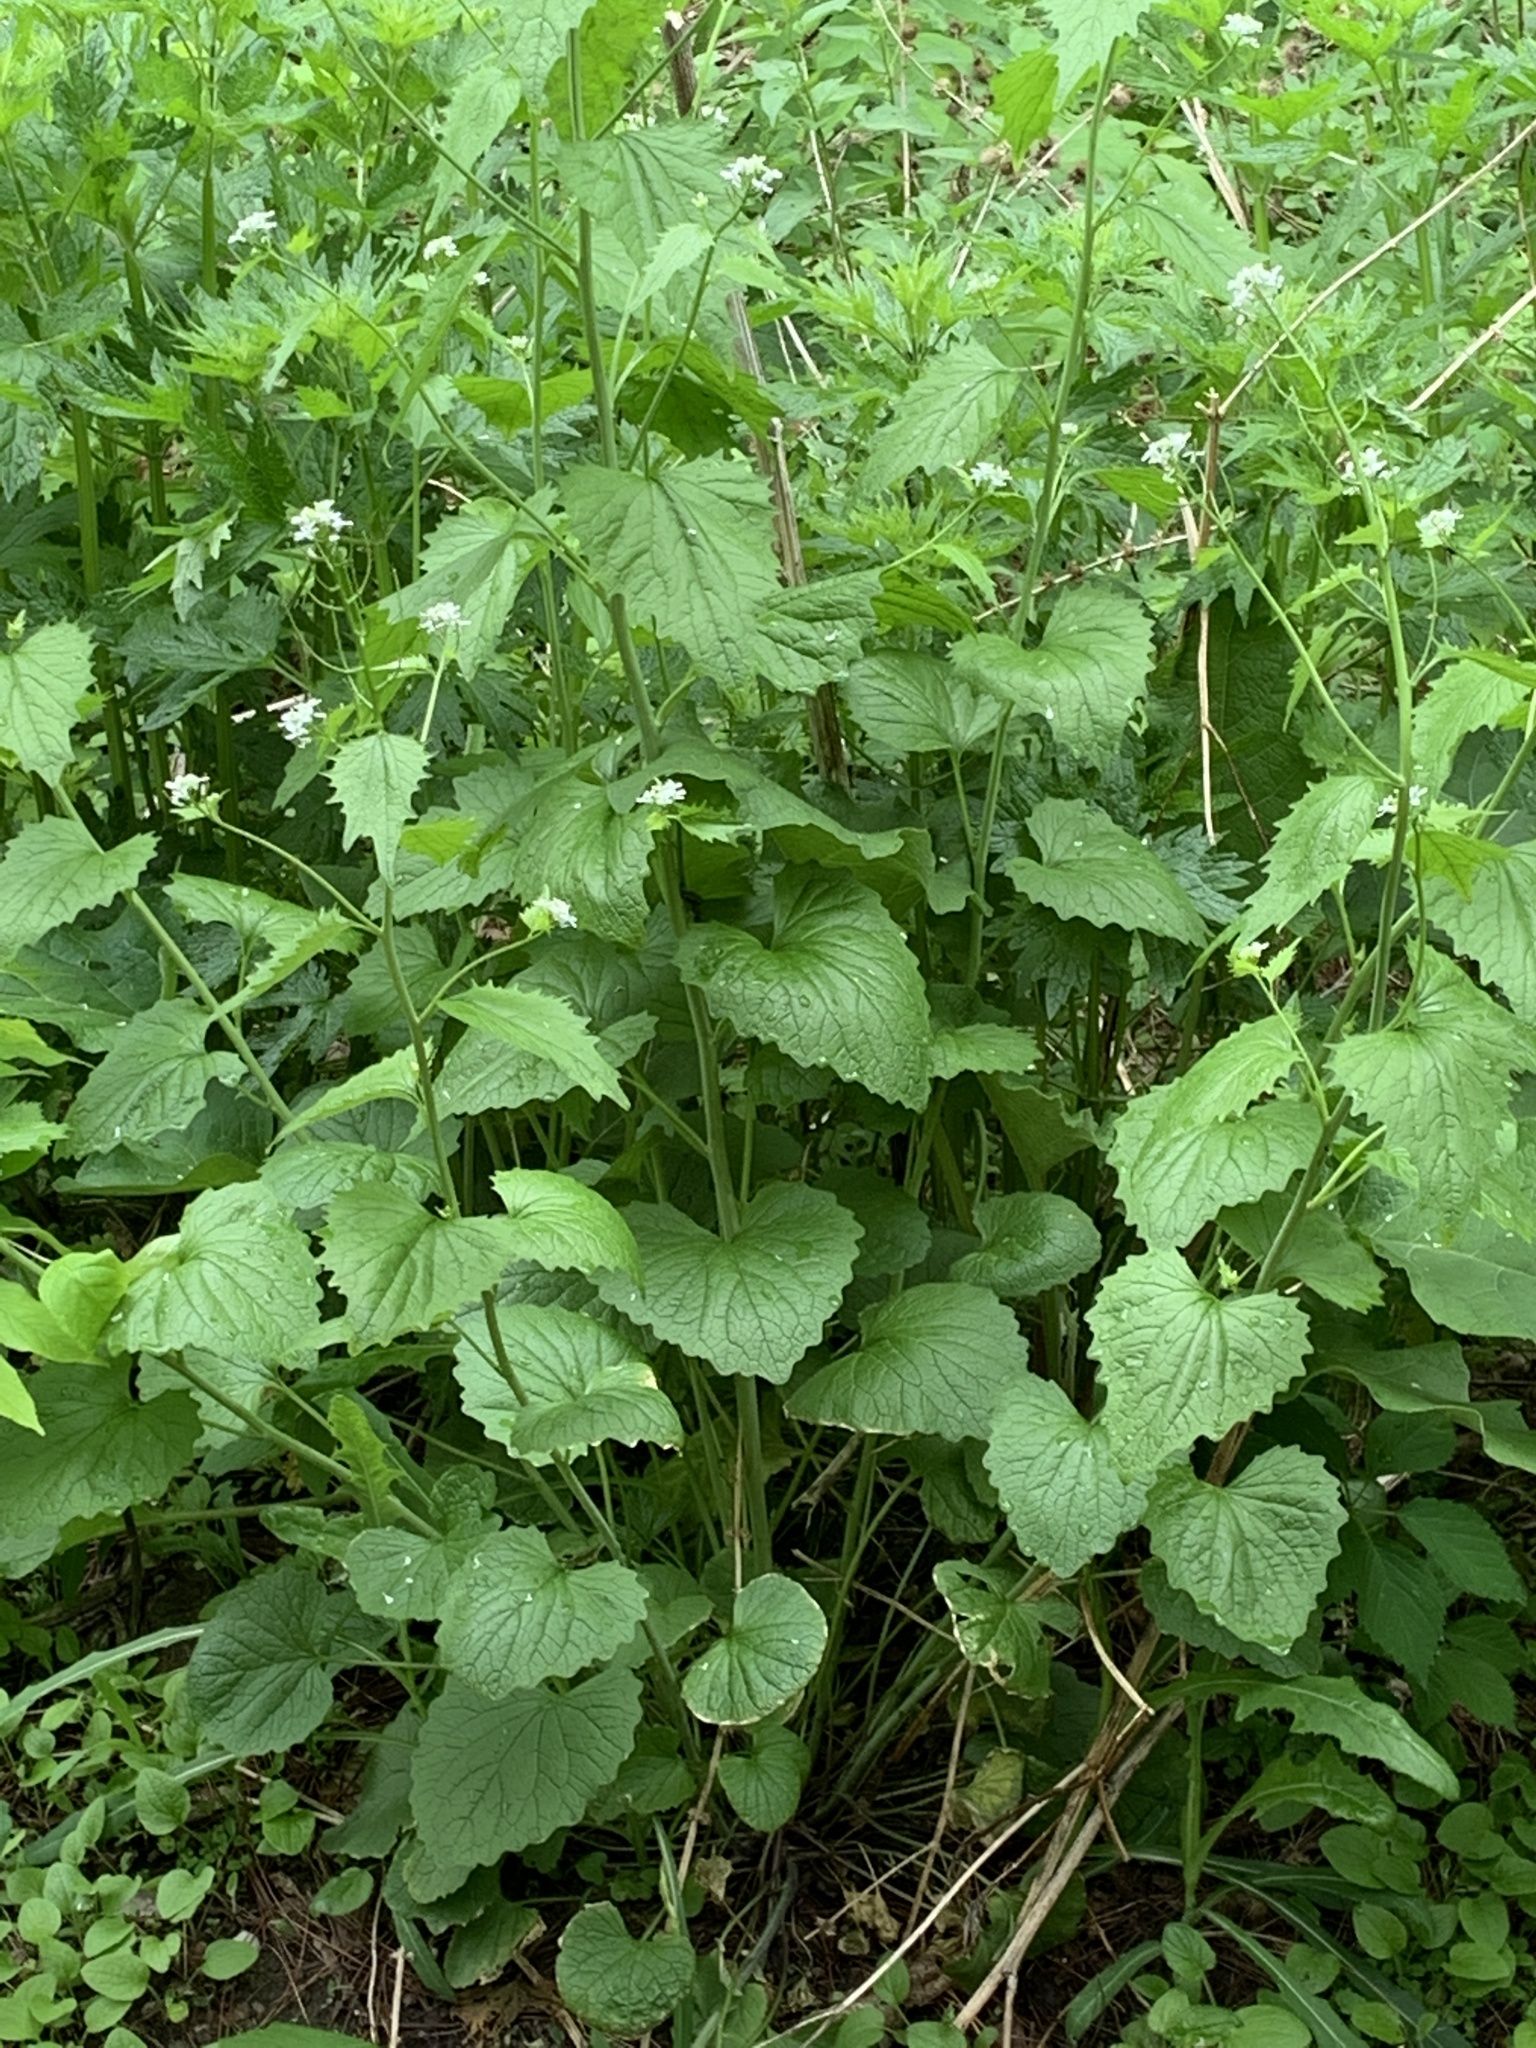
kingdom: Plantae
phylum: Tracheophyta
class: Magnoliopsida
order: Brassicales
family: Brassicaceae
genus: Alliaria
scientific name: Alliaria petiolata
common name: Garlic mustard
